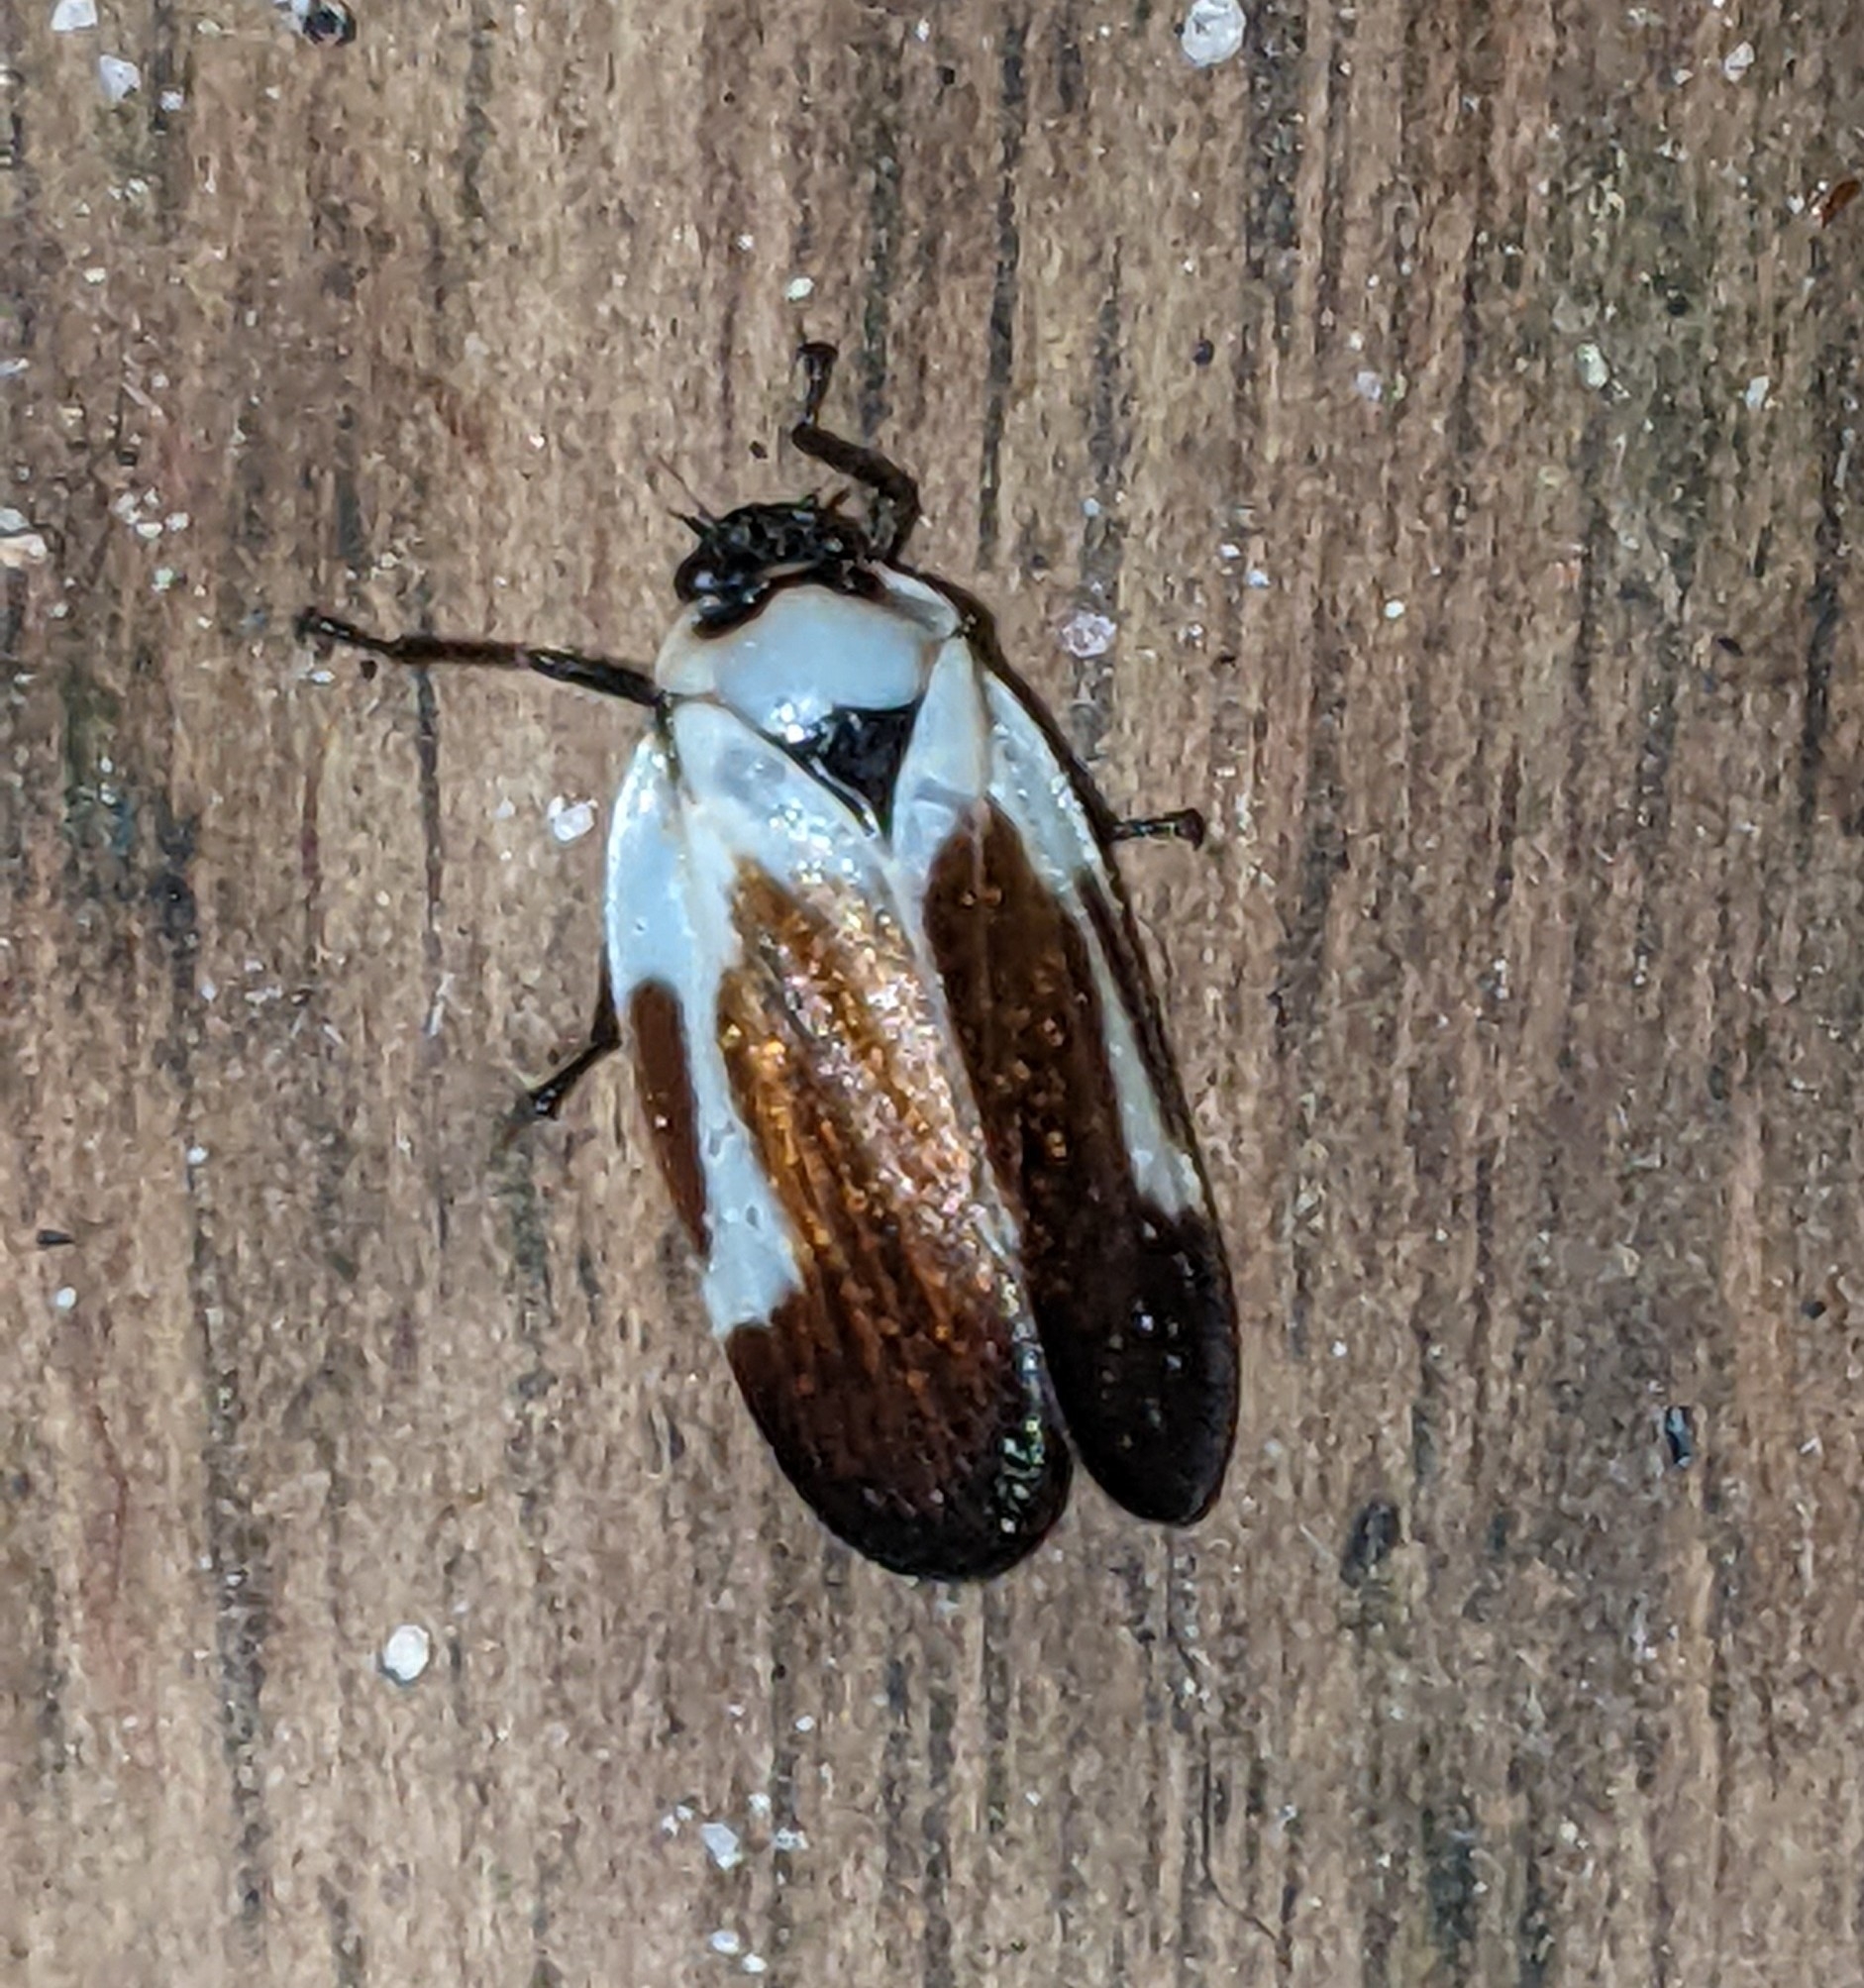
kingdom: Animalia
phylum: Arthropoda
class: Insecta
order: Hemiptera
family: Cercopidae
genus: Sphenorhina
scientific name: Sphenorhina quadrifera
